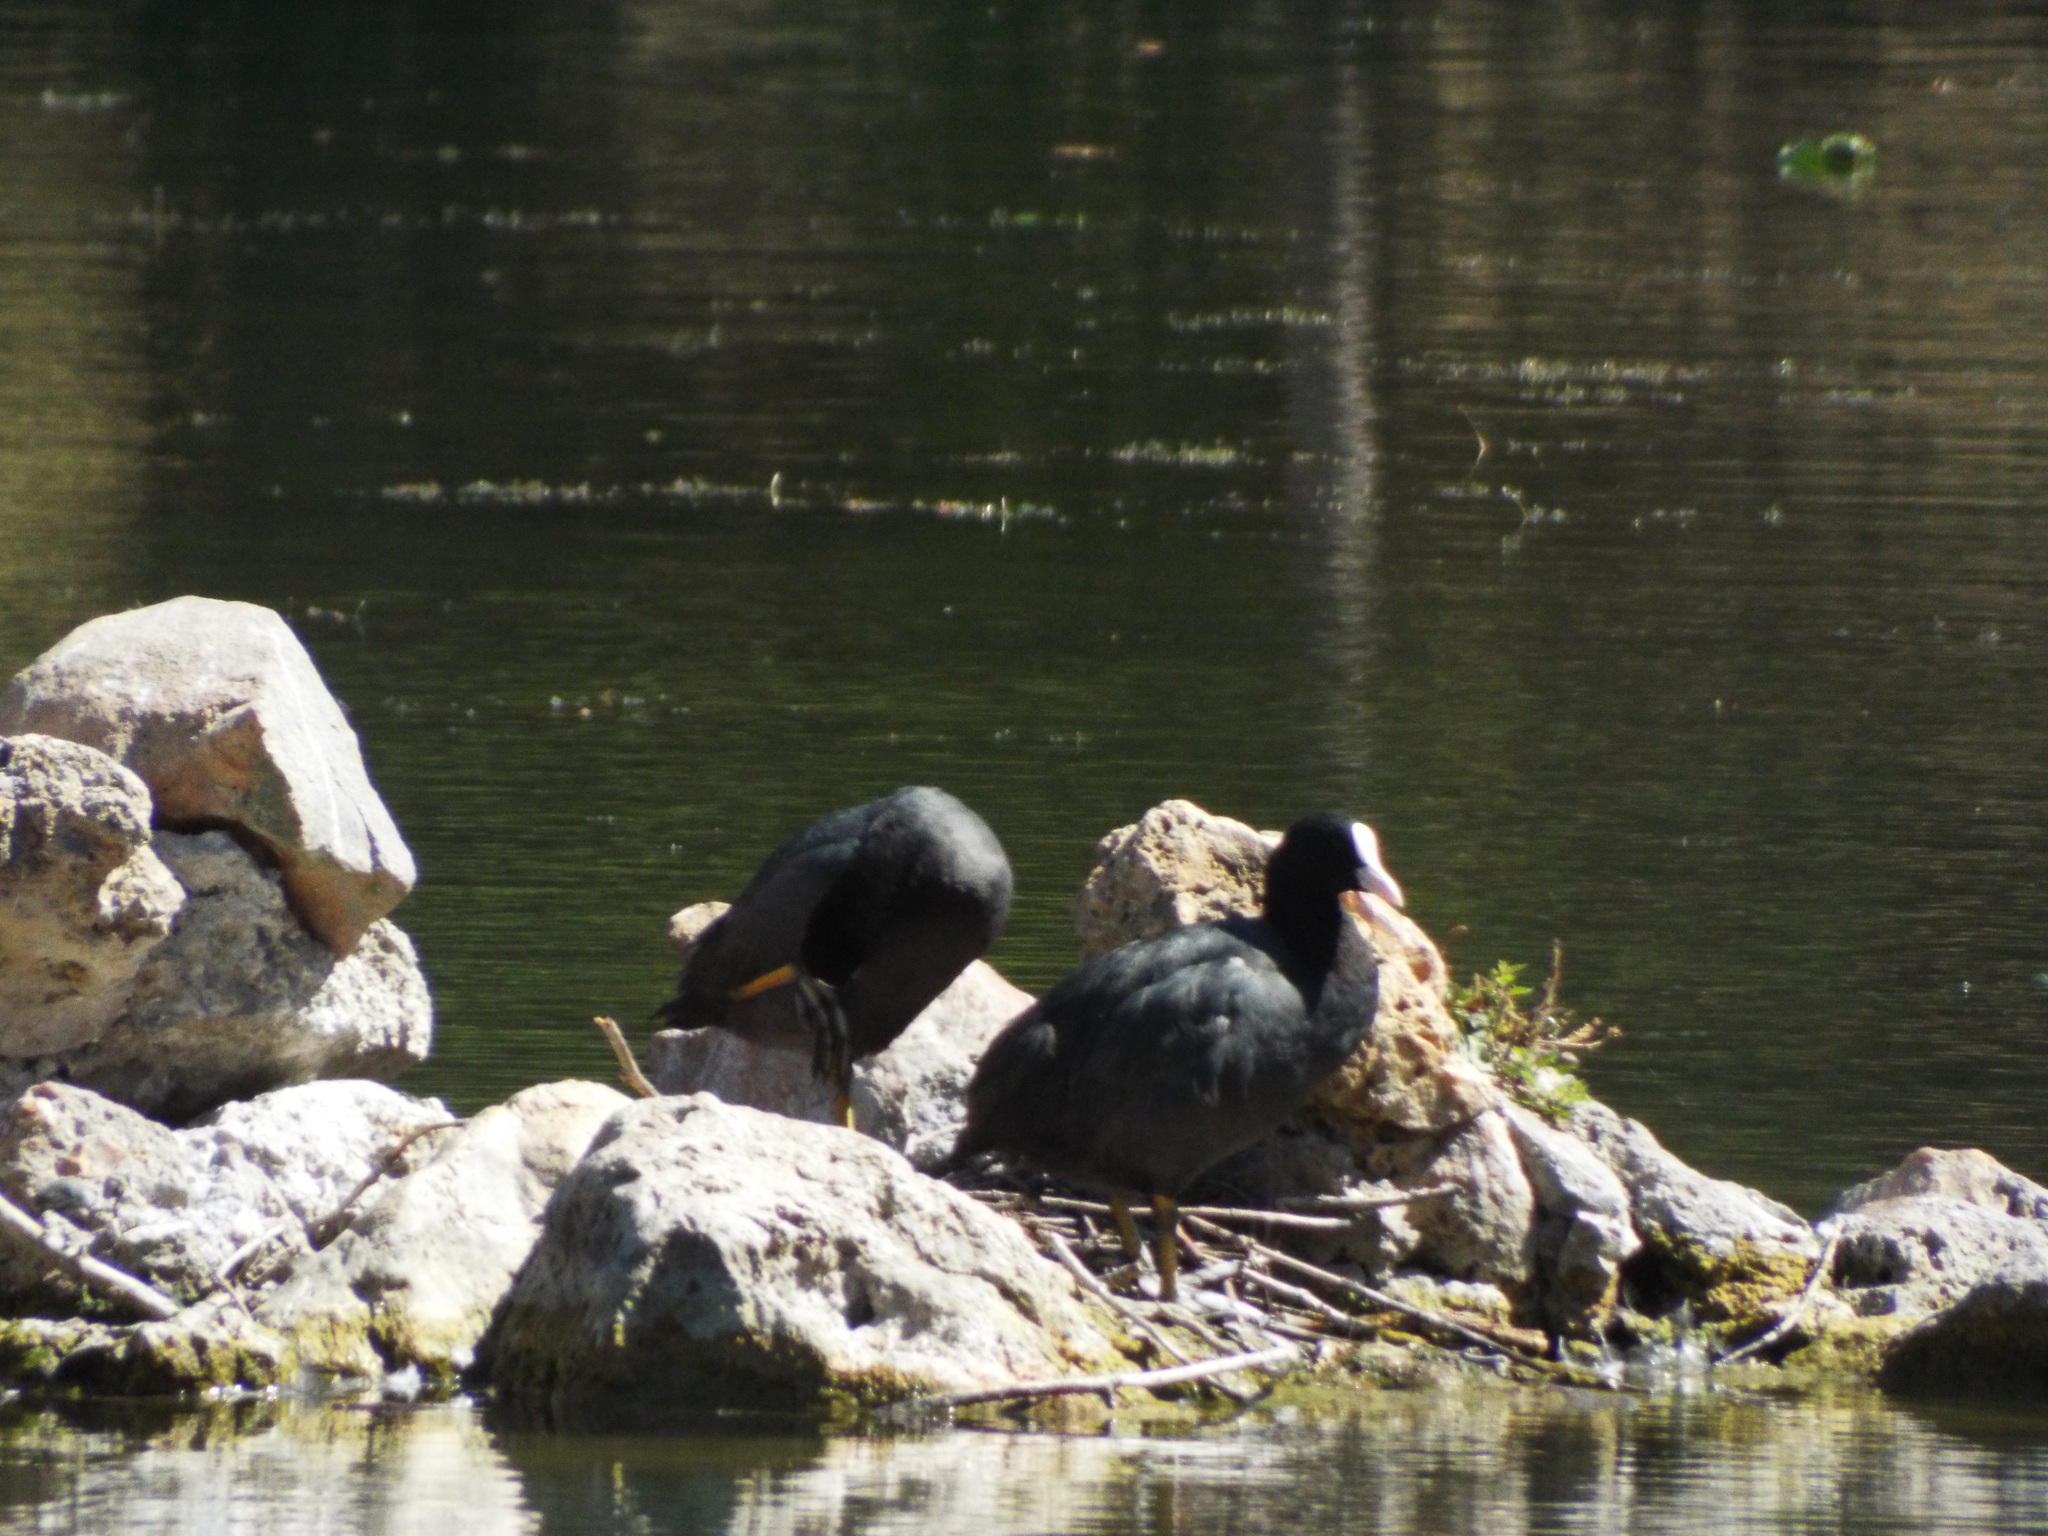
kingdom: Animalia
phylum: Chordata
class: Aves
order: Gruiformes
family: Rallidae
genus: Fulica
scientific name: Fulica atra
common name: Eurasian coot
